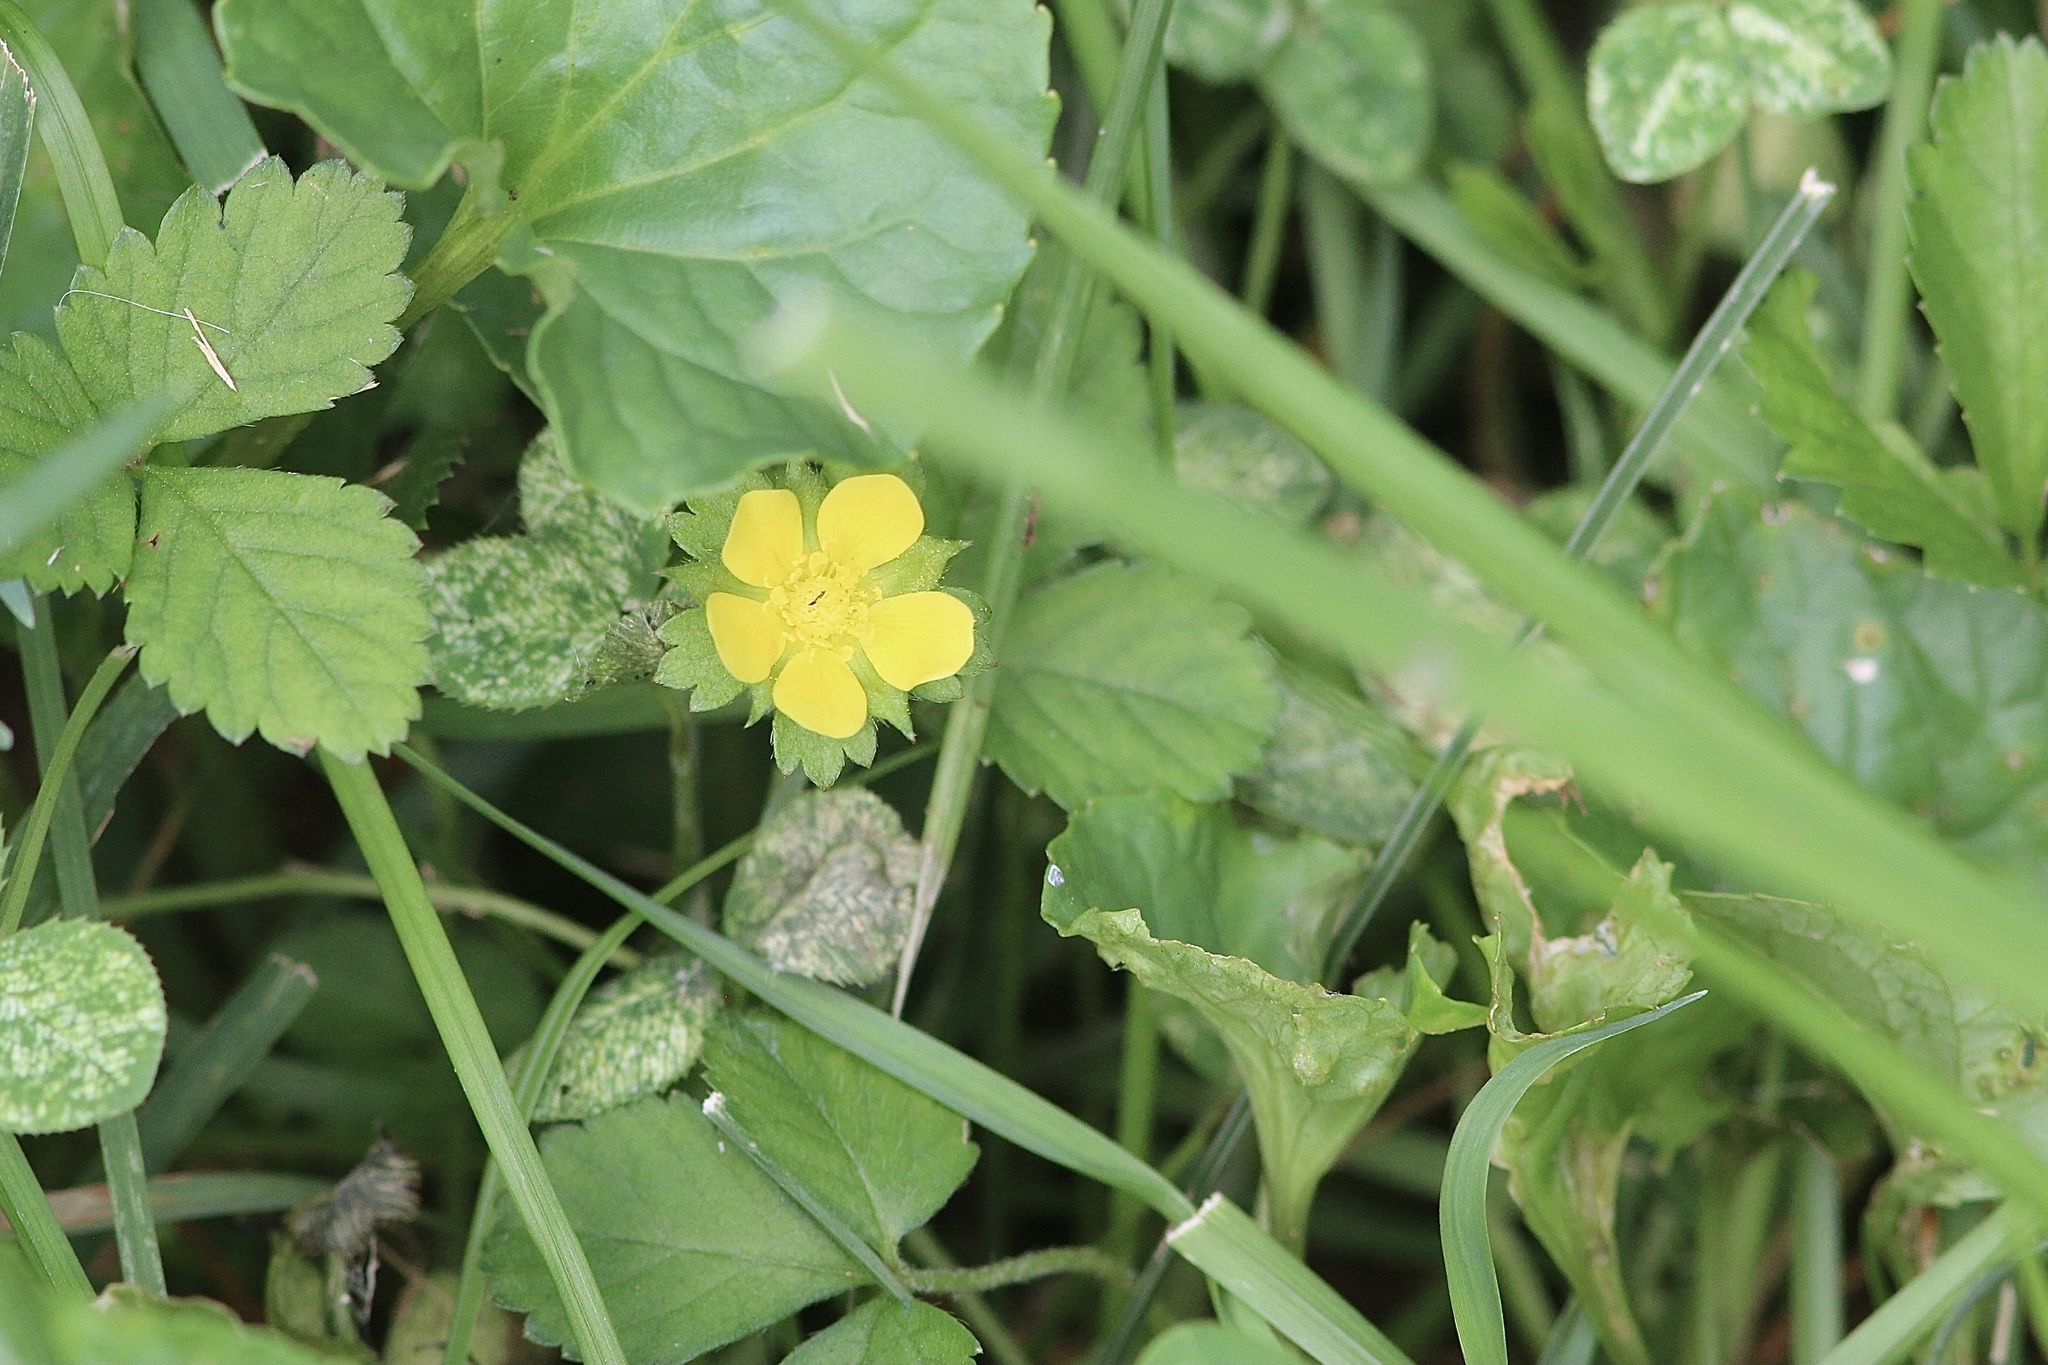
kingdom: Plantae
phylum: Tracheophyta
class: Magnoliopsida
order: Rosales
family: Rosaceae
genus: Potentilla
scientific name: Potentilla indica
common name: Yellow-flowered strawberry
